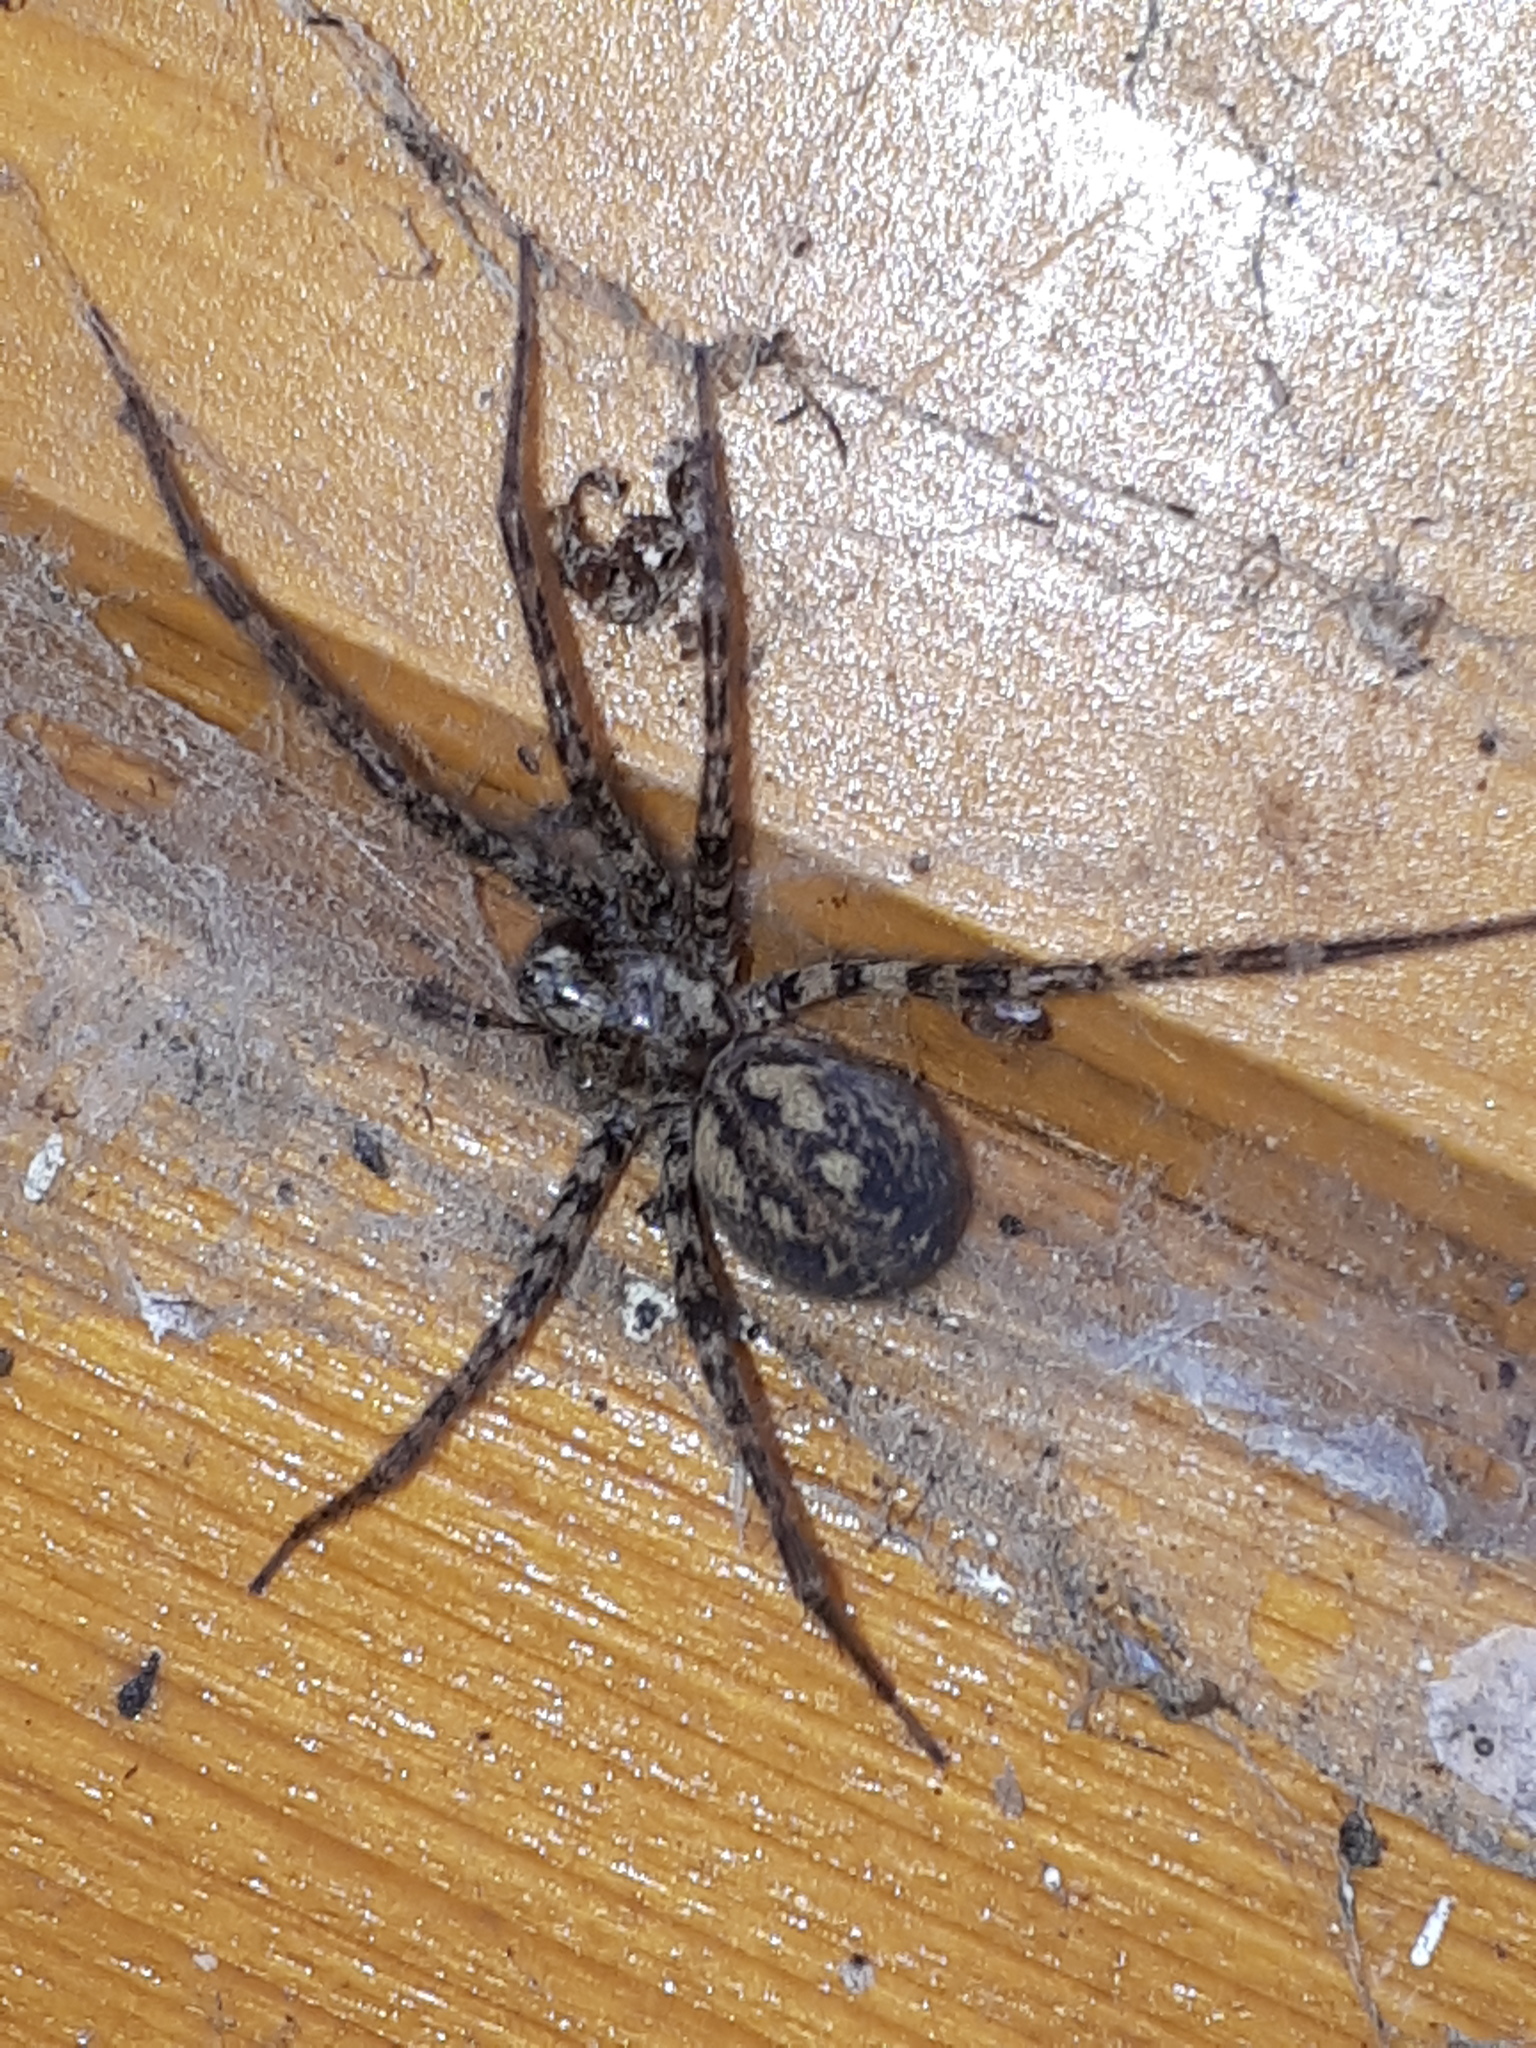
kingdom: Animalia
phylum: Arthropoda
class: Arachnida
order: Araneae
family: Agelenidae
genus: Tegenaria
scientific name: Tegenaria ferruginea
